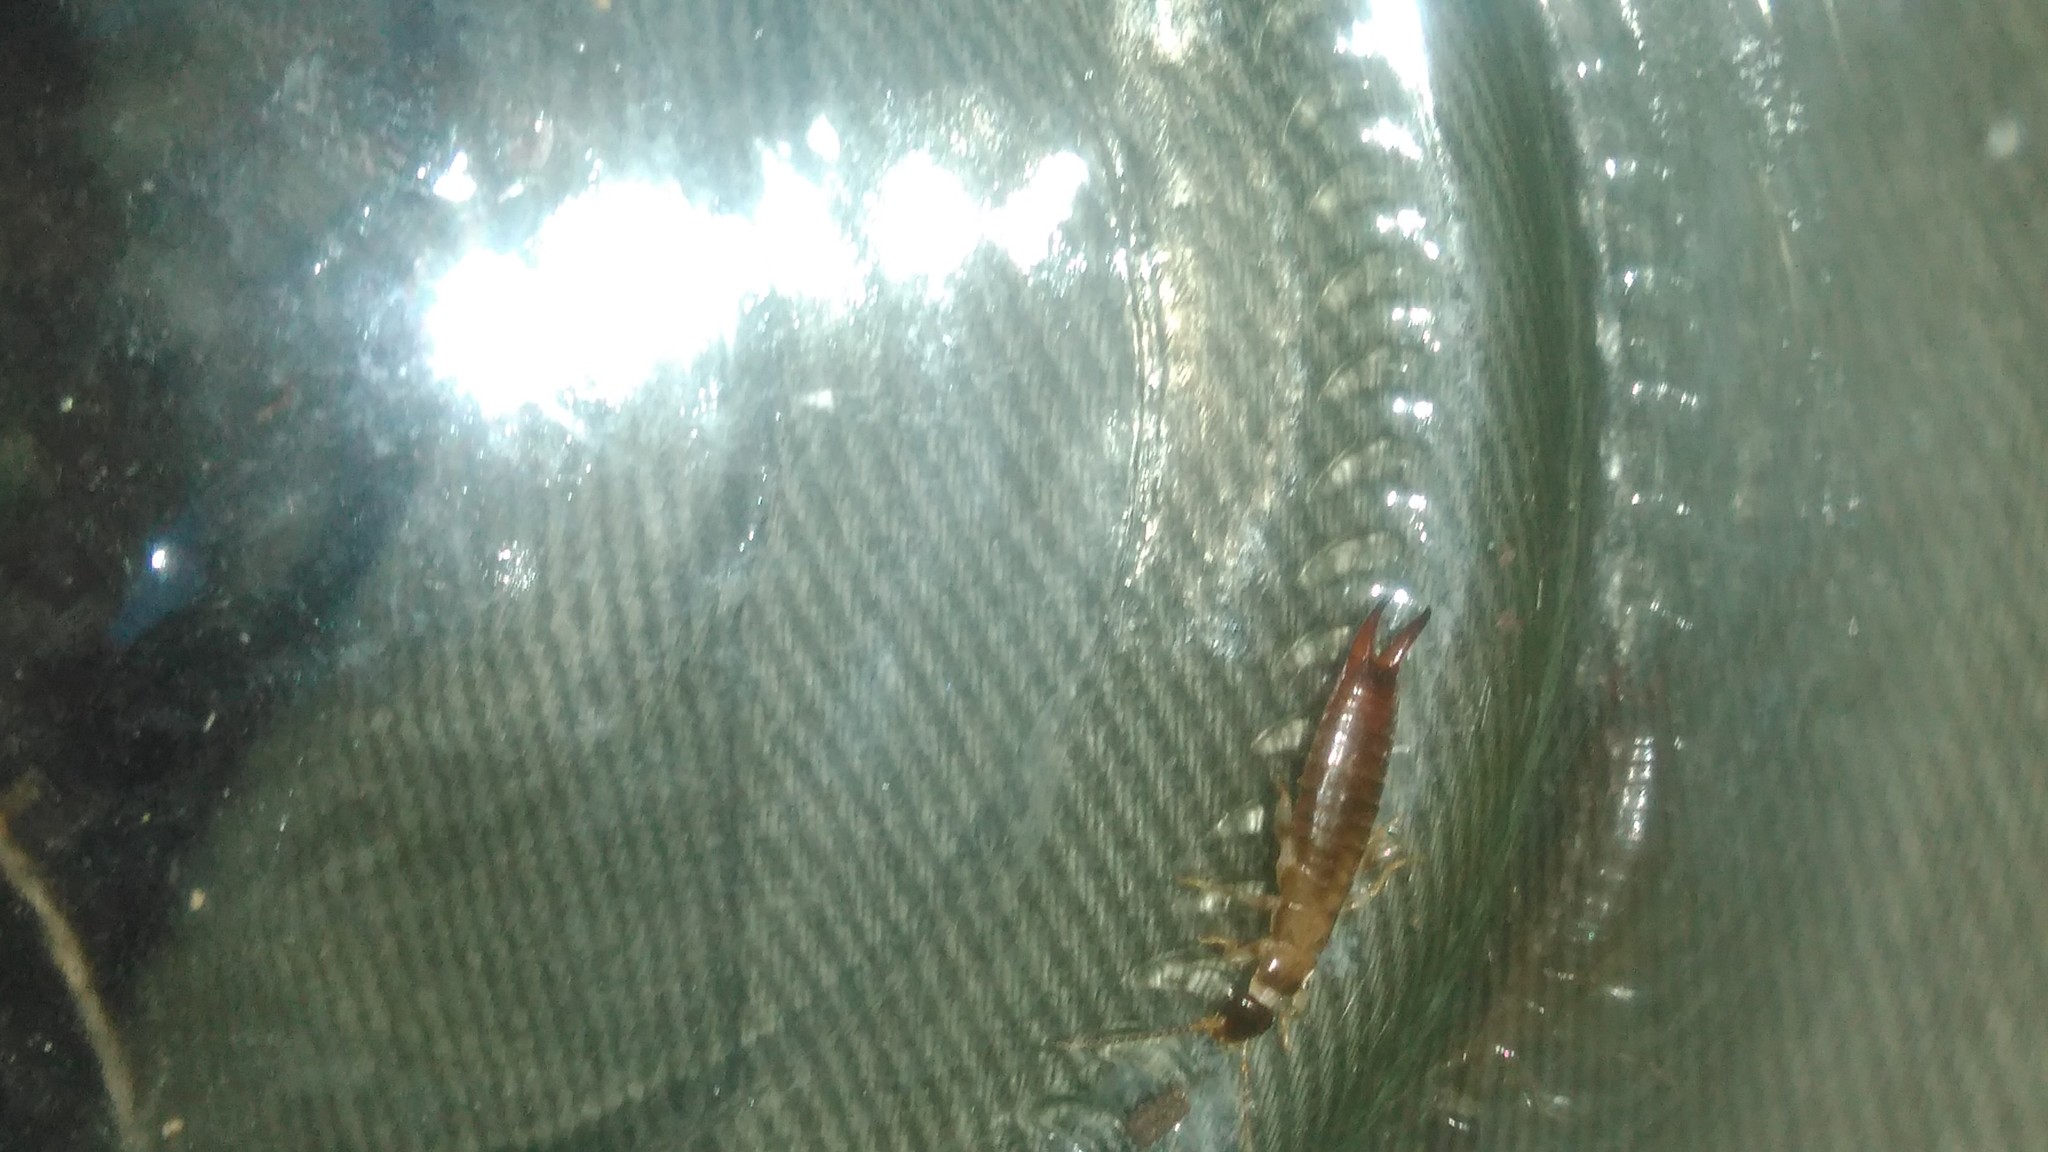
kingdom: Animalia
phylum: Arthropoda
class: Insecta
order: Dermaptera
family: Anisolabididae
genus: Euborellia
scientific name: Euborellia annulipes
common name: Ringlegged earwig
